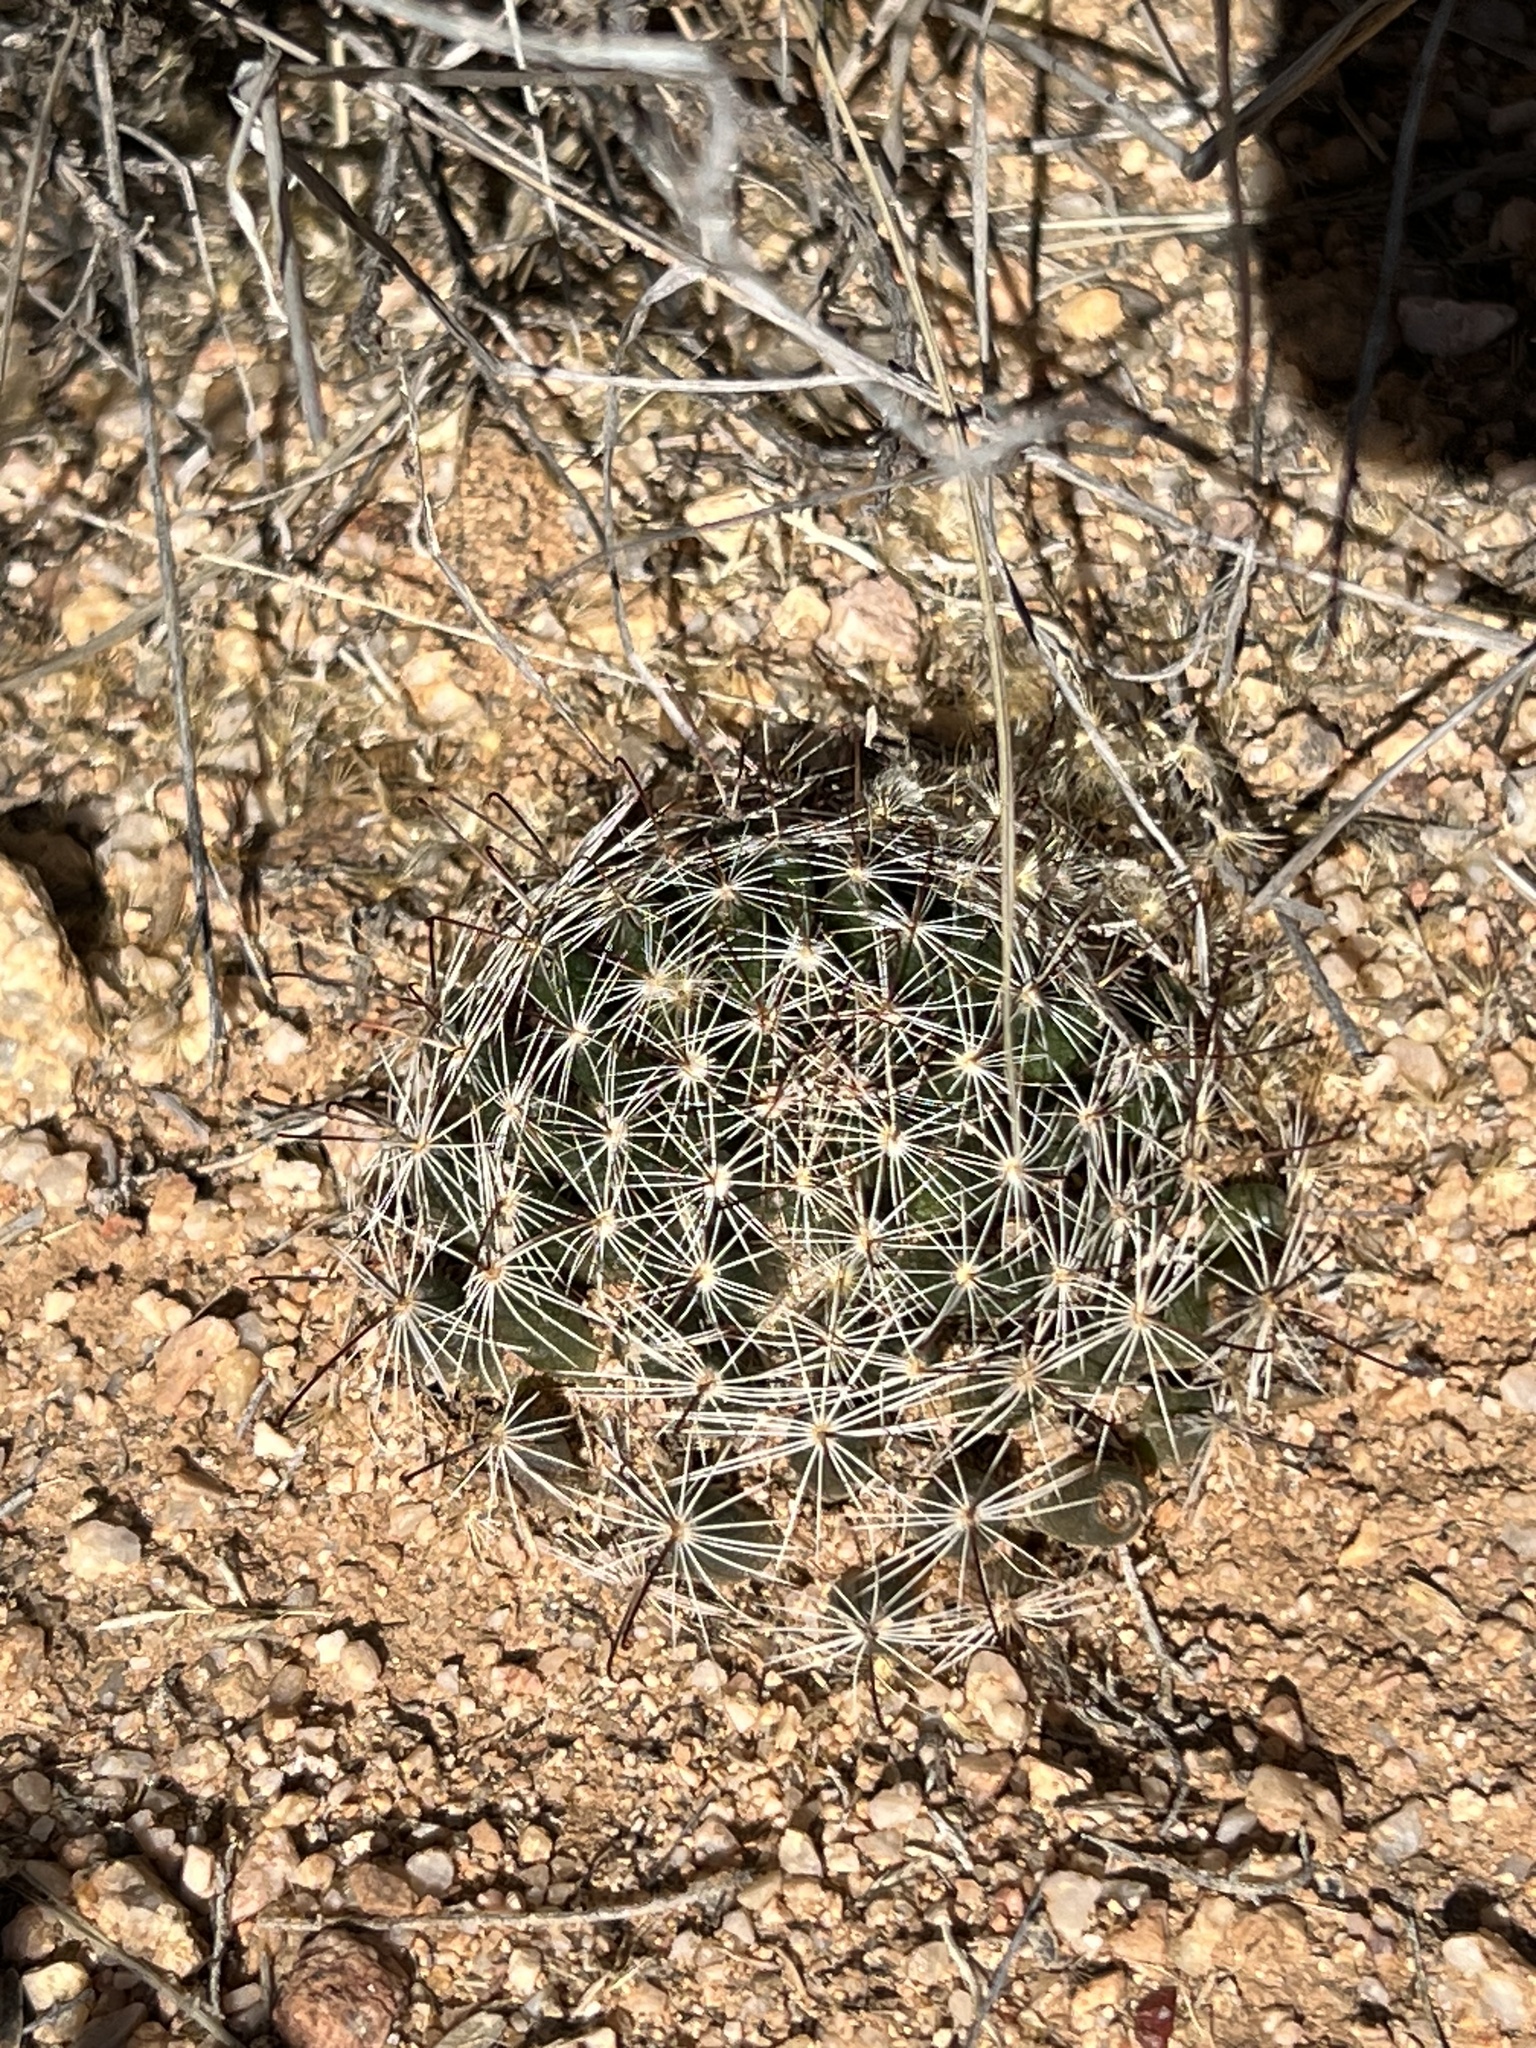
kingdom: Plantae
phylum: Tracheophyta
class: Magnoliopsida
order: Caryophyllales
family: Cactaceae
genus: Cochemiea
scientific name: Cochemiea wrightii
